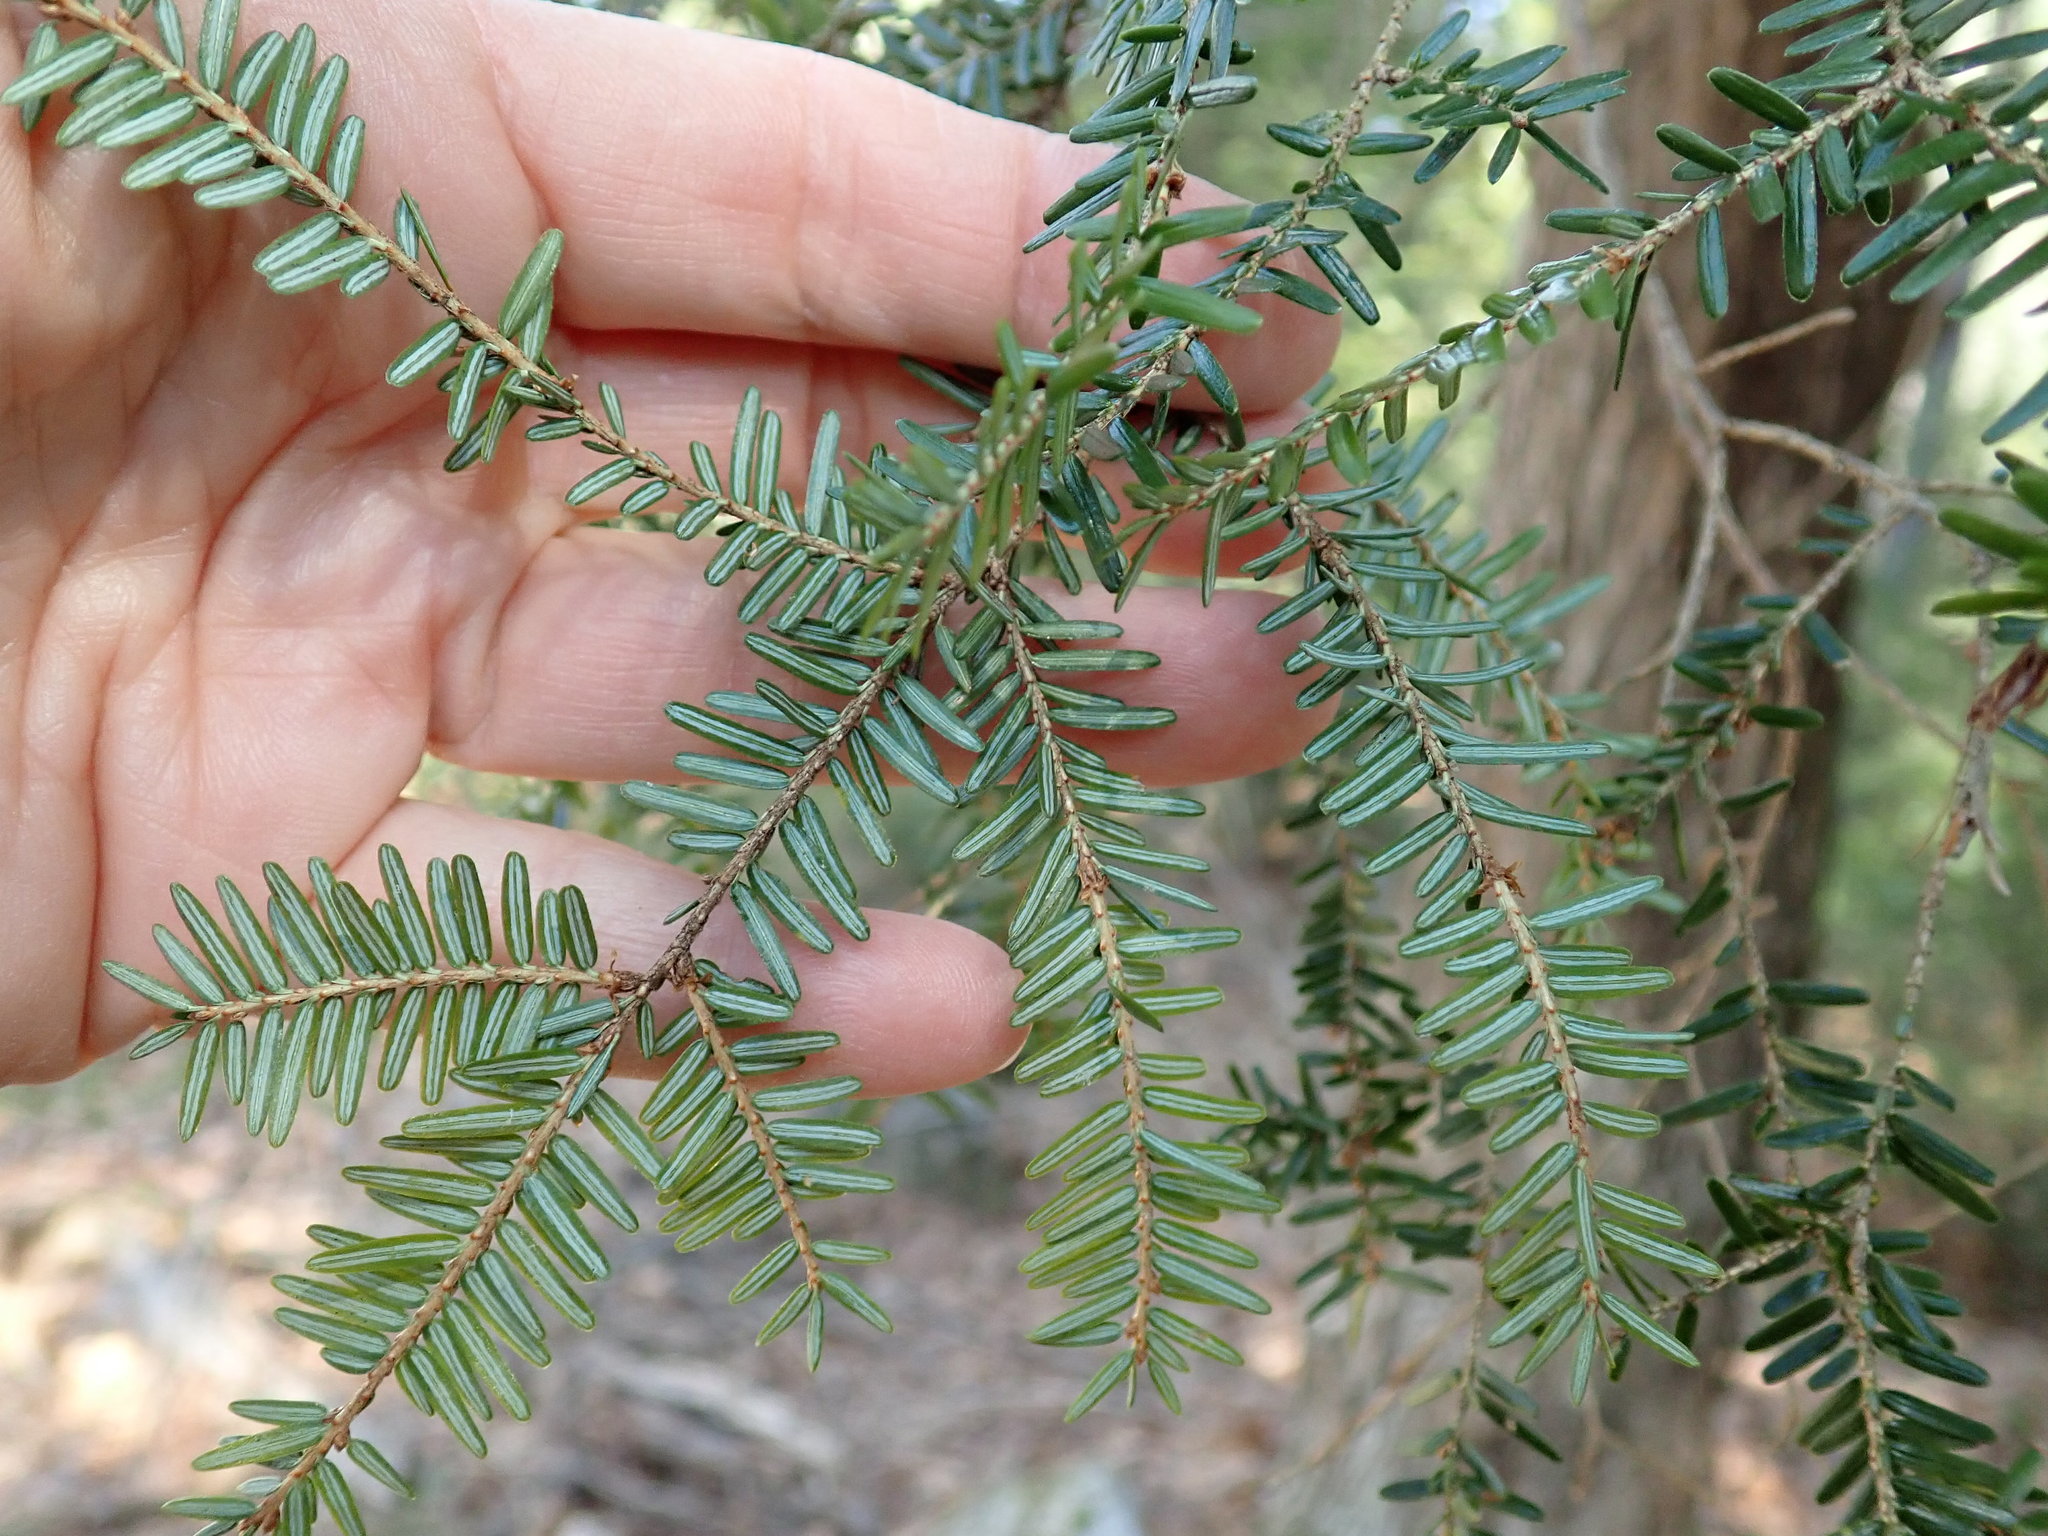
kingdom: Plantae
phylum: Tracheophyta
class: Pinopsida
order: Pinales
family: Pinaceae
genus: Tsuga
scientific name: Tsuga canadensis
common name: Eastern hemlock
